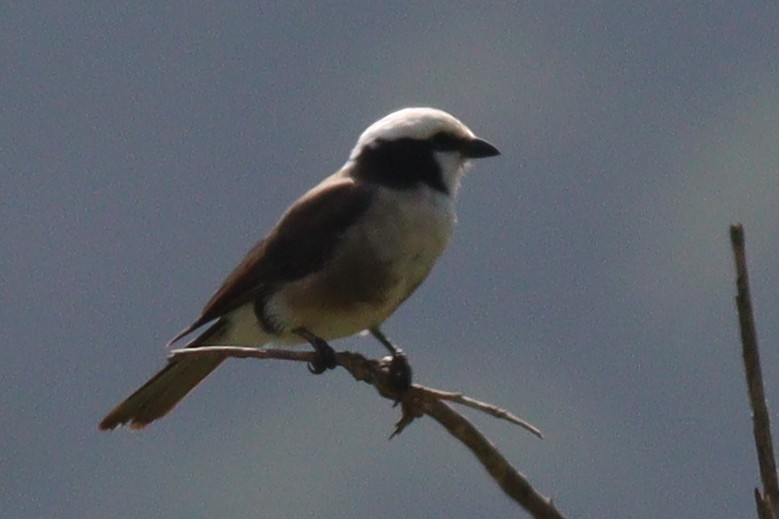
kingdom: Animalia
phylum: Chordata
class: Aves
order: Passeriformes
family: Laniidae
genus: Eurocephalus
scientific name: Eurocephalus ruppelli
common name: Northern white-crowned shrike
